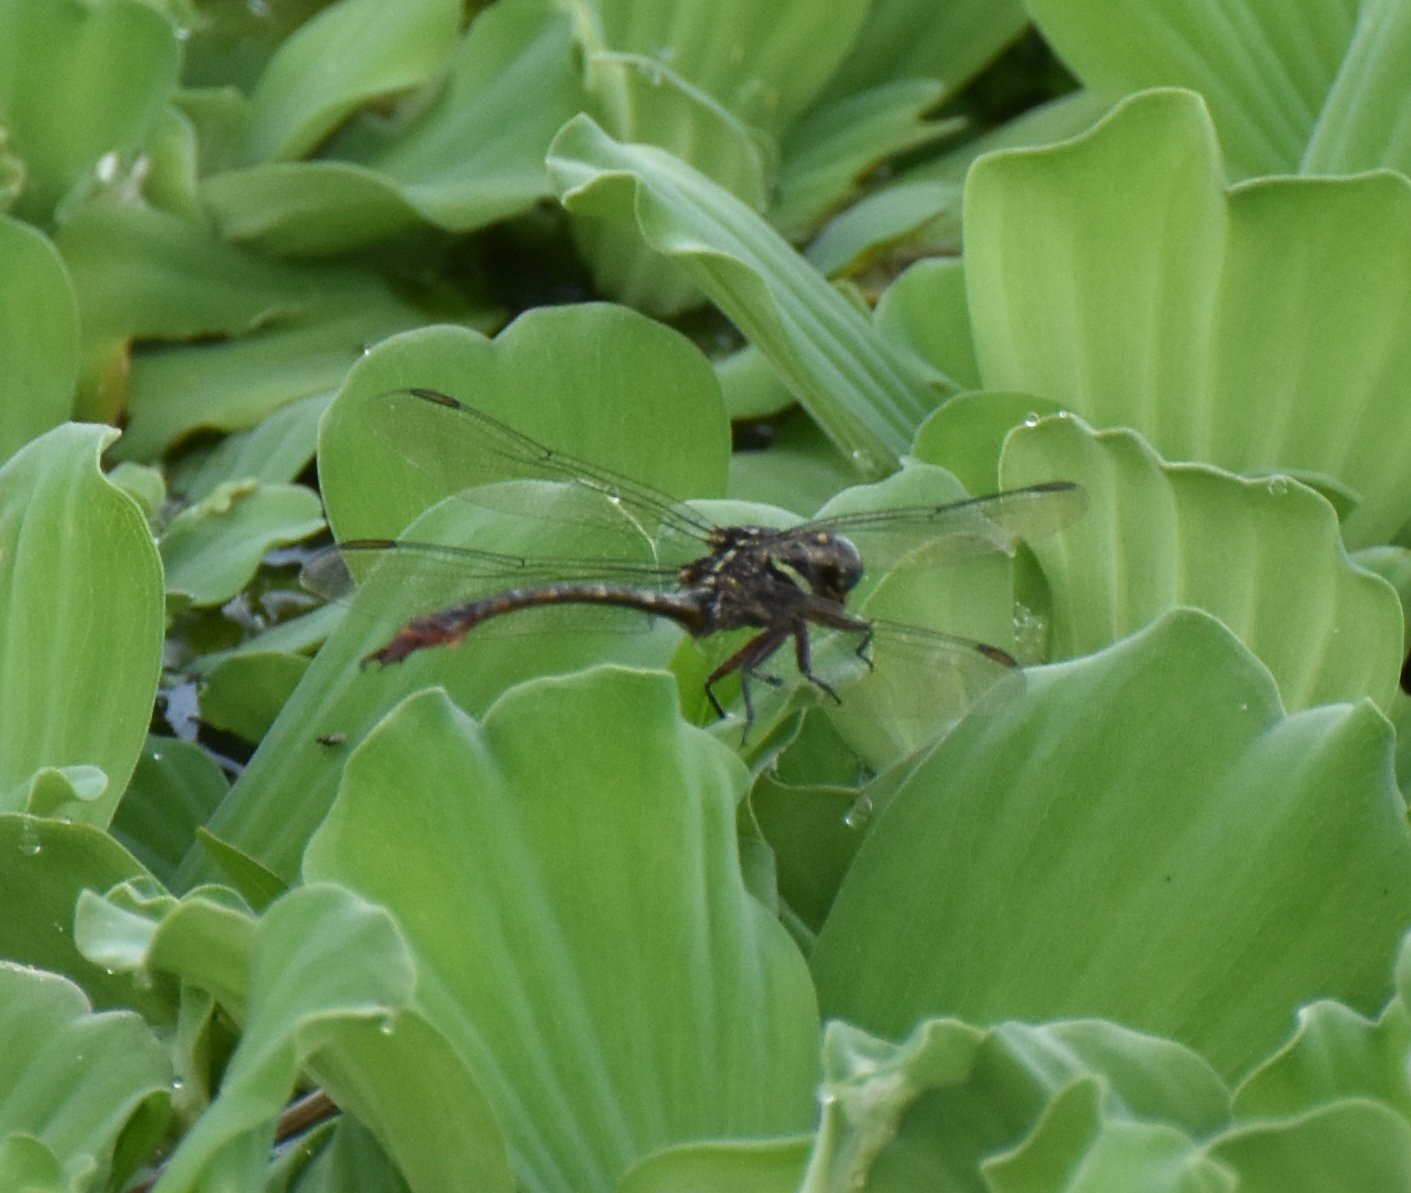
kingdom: Animalia
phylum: Arthropoda
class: Insecta
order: Odonata
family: Gomphidae
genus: Aphylla
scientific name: Aphylla williamsoni
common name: Two-striped forceptail
